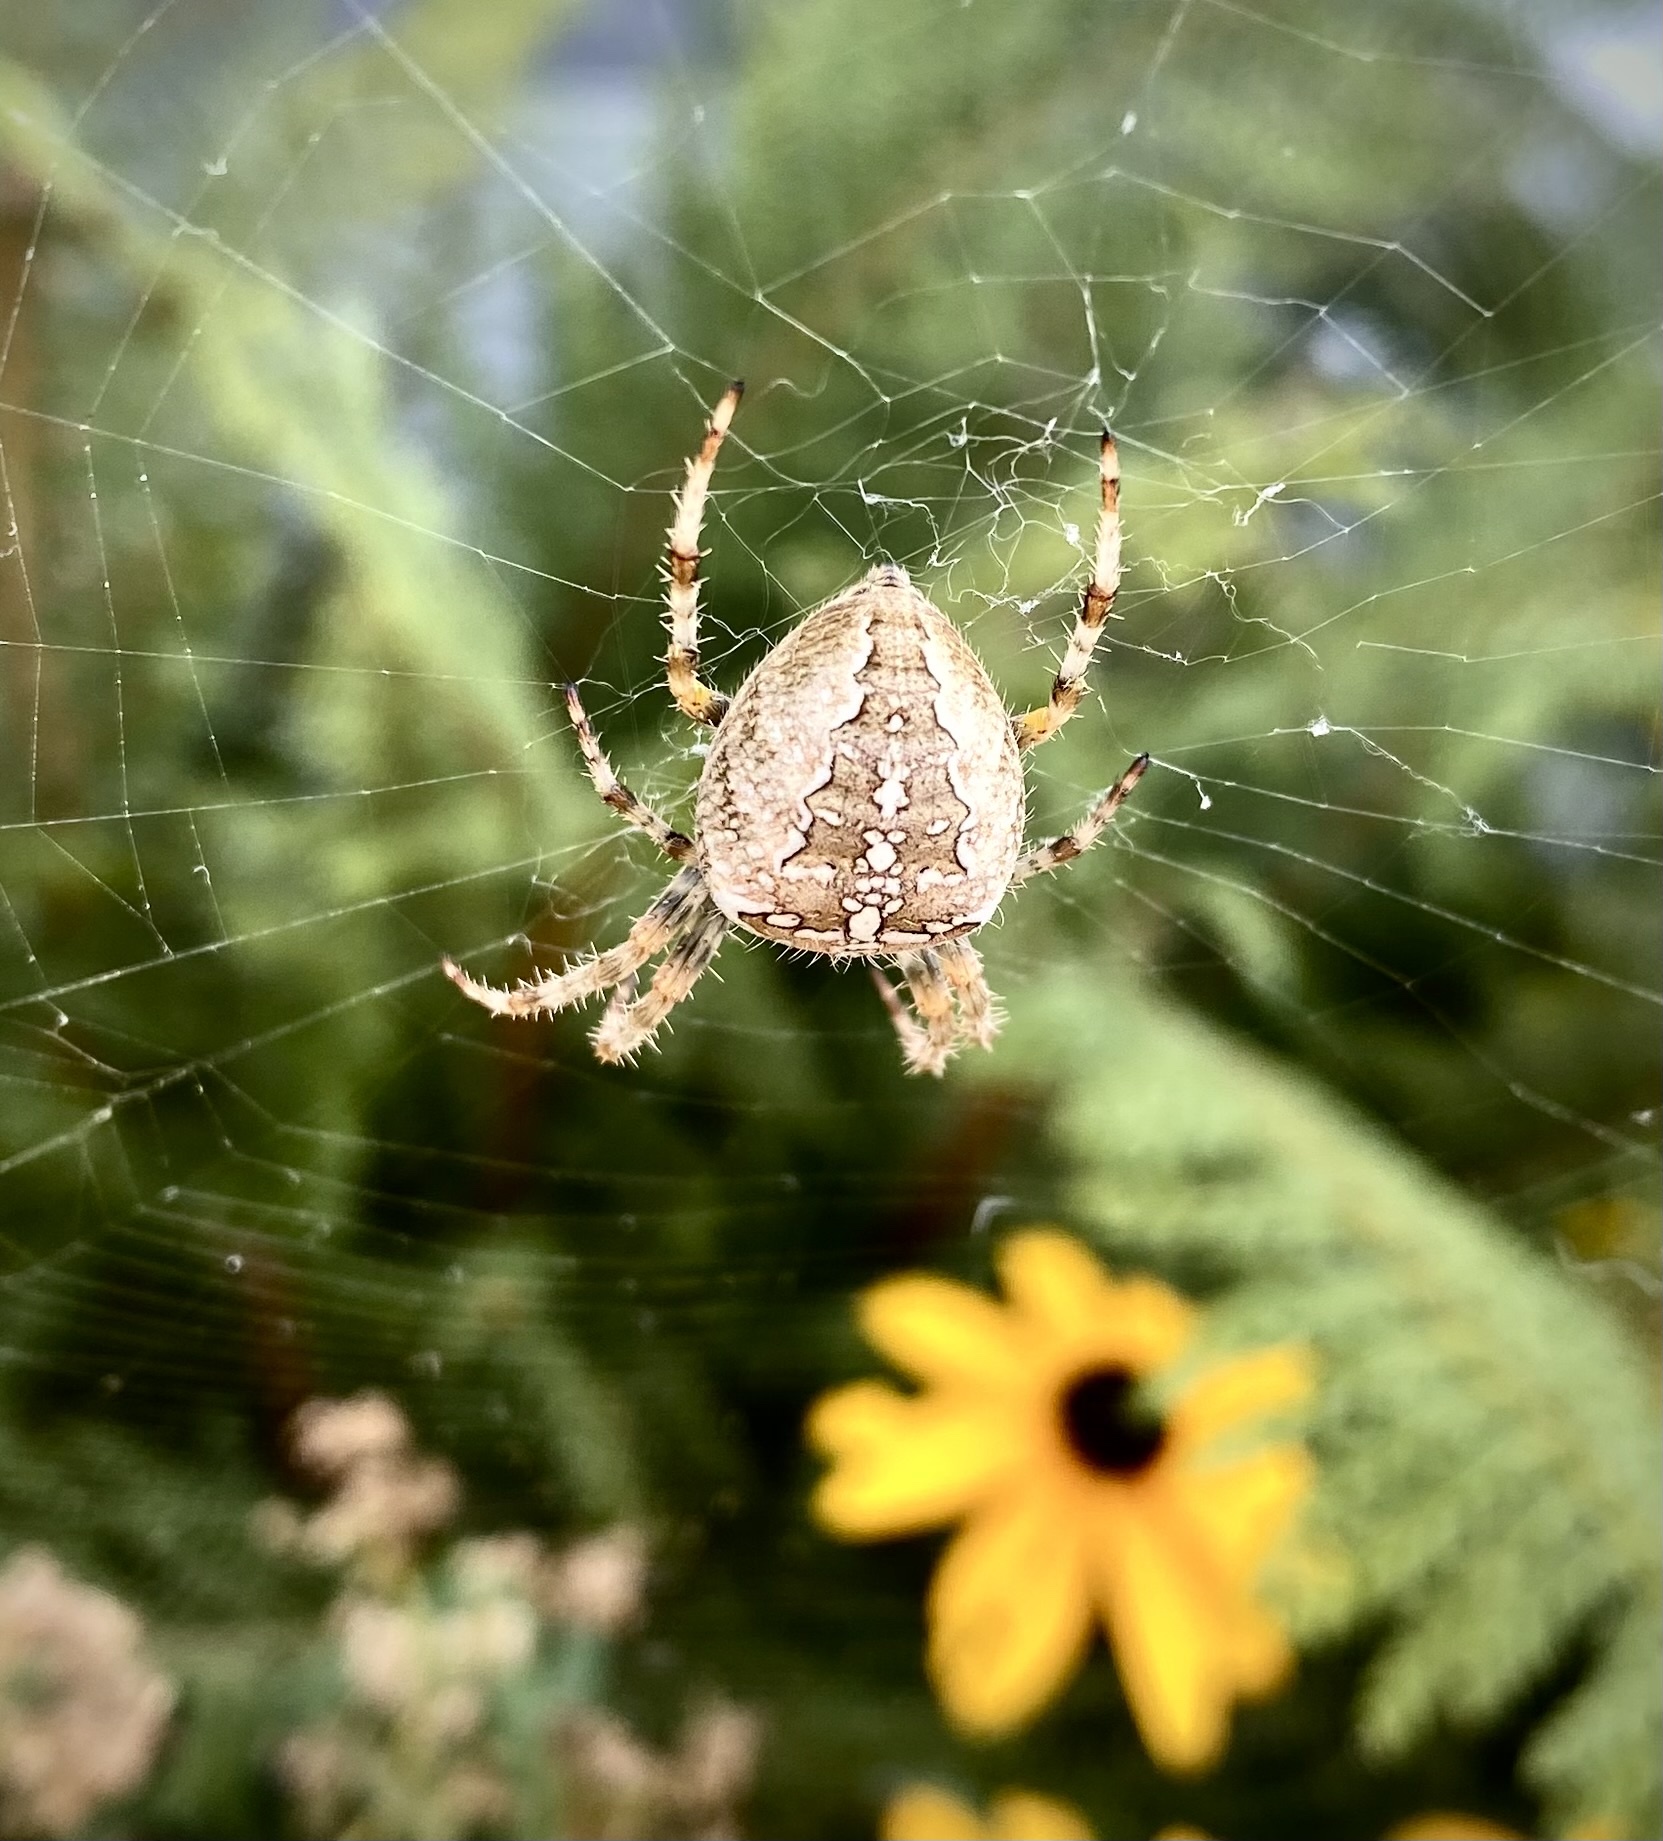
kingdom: Animalia
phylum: Arthropoda
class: Arachnida
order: Araneae
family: Araneidae
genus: Araneus
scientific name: Araneus diadematus
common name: Cross orbweaver
